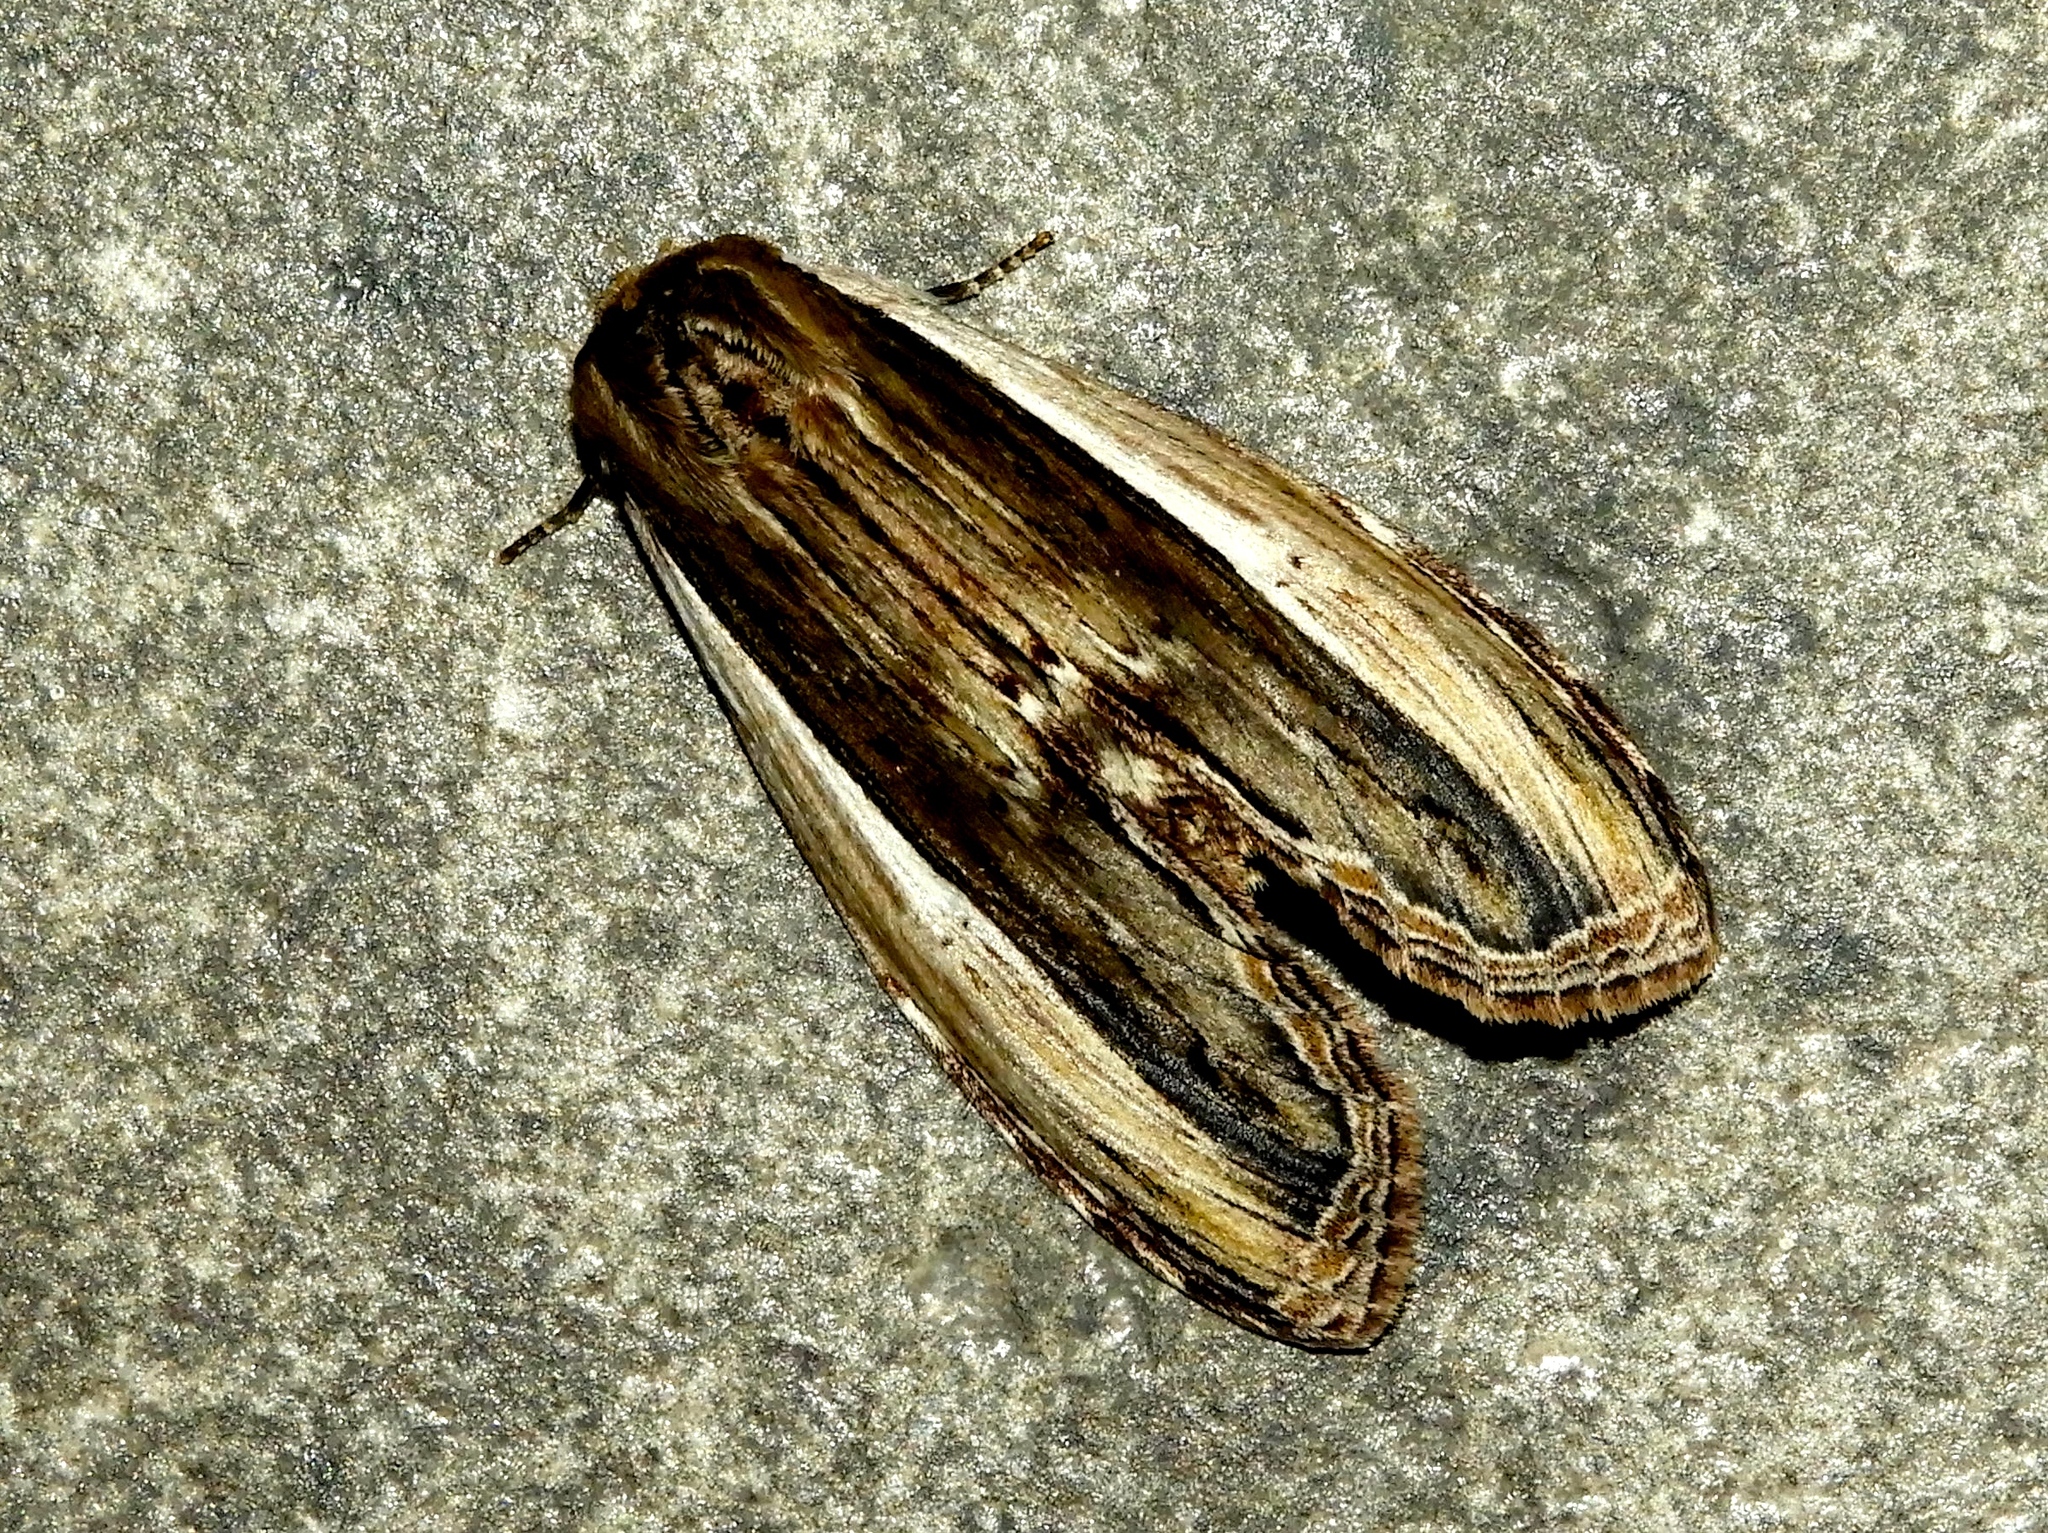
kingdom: Animalia
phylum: Arthropoda
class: Insecta
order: Lepidoptera
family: Notodontidae
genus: Truncaptera
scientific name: Truncaptera
